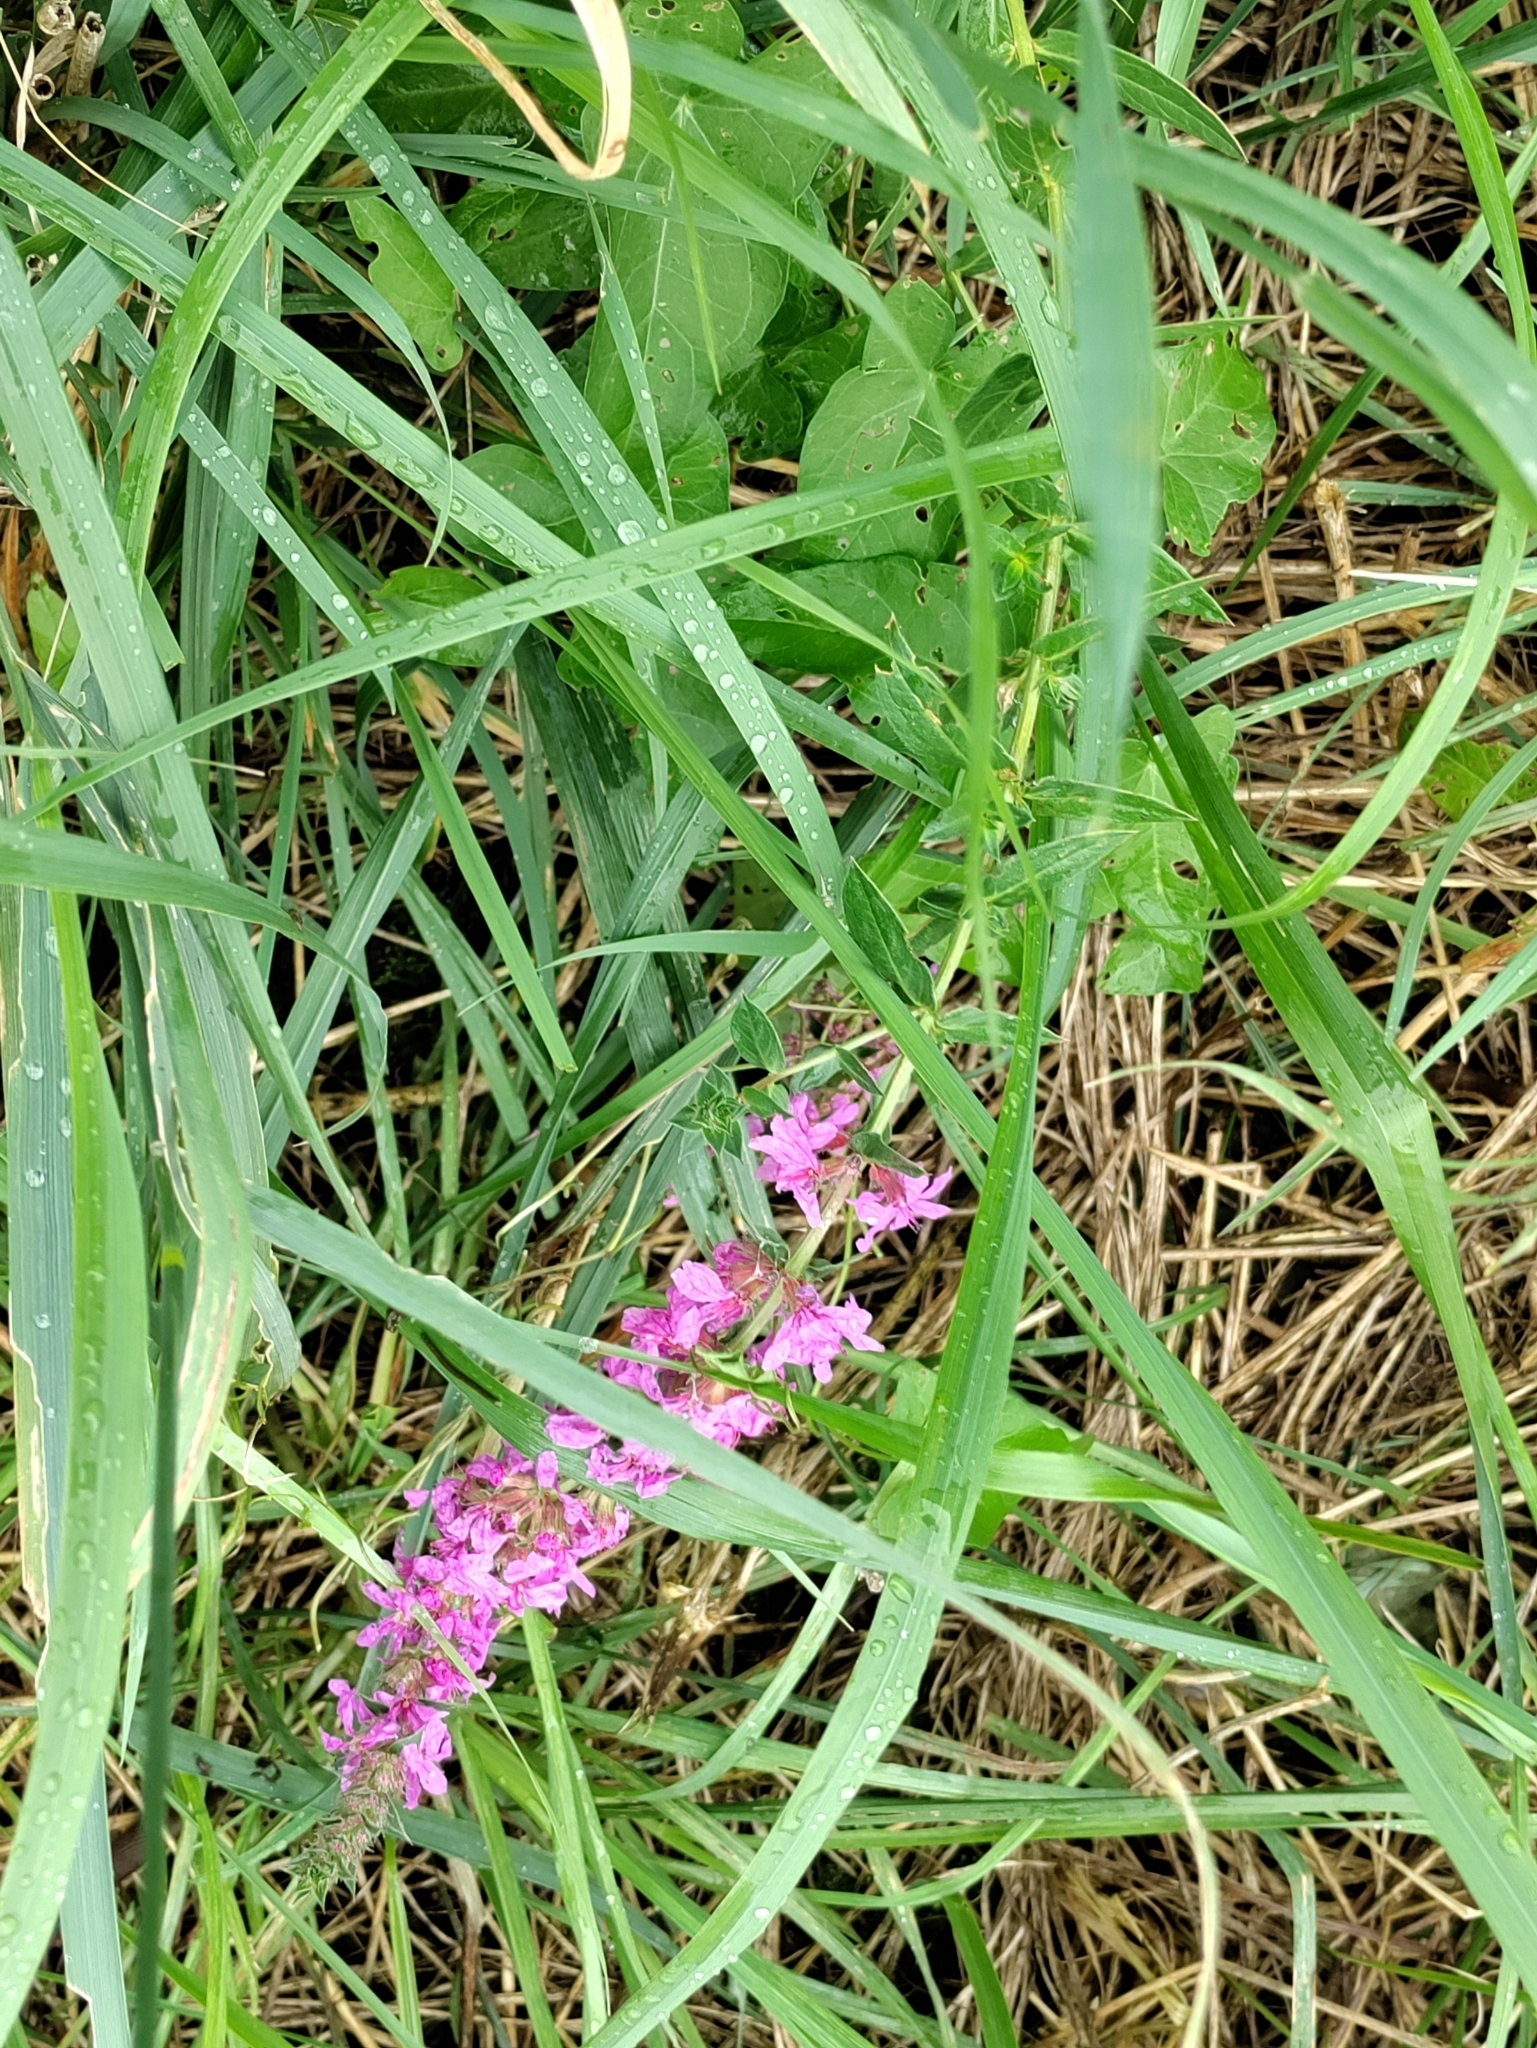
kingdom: Plantae
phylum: Tracheophyta
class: Magnoliopsida
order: Myrtales
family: Lythraceae
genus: Lythrum
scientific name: Lythrum salicaria
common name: Purple loosestrife
